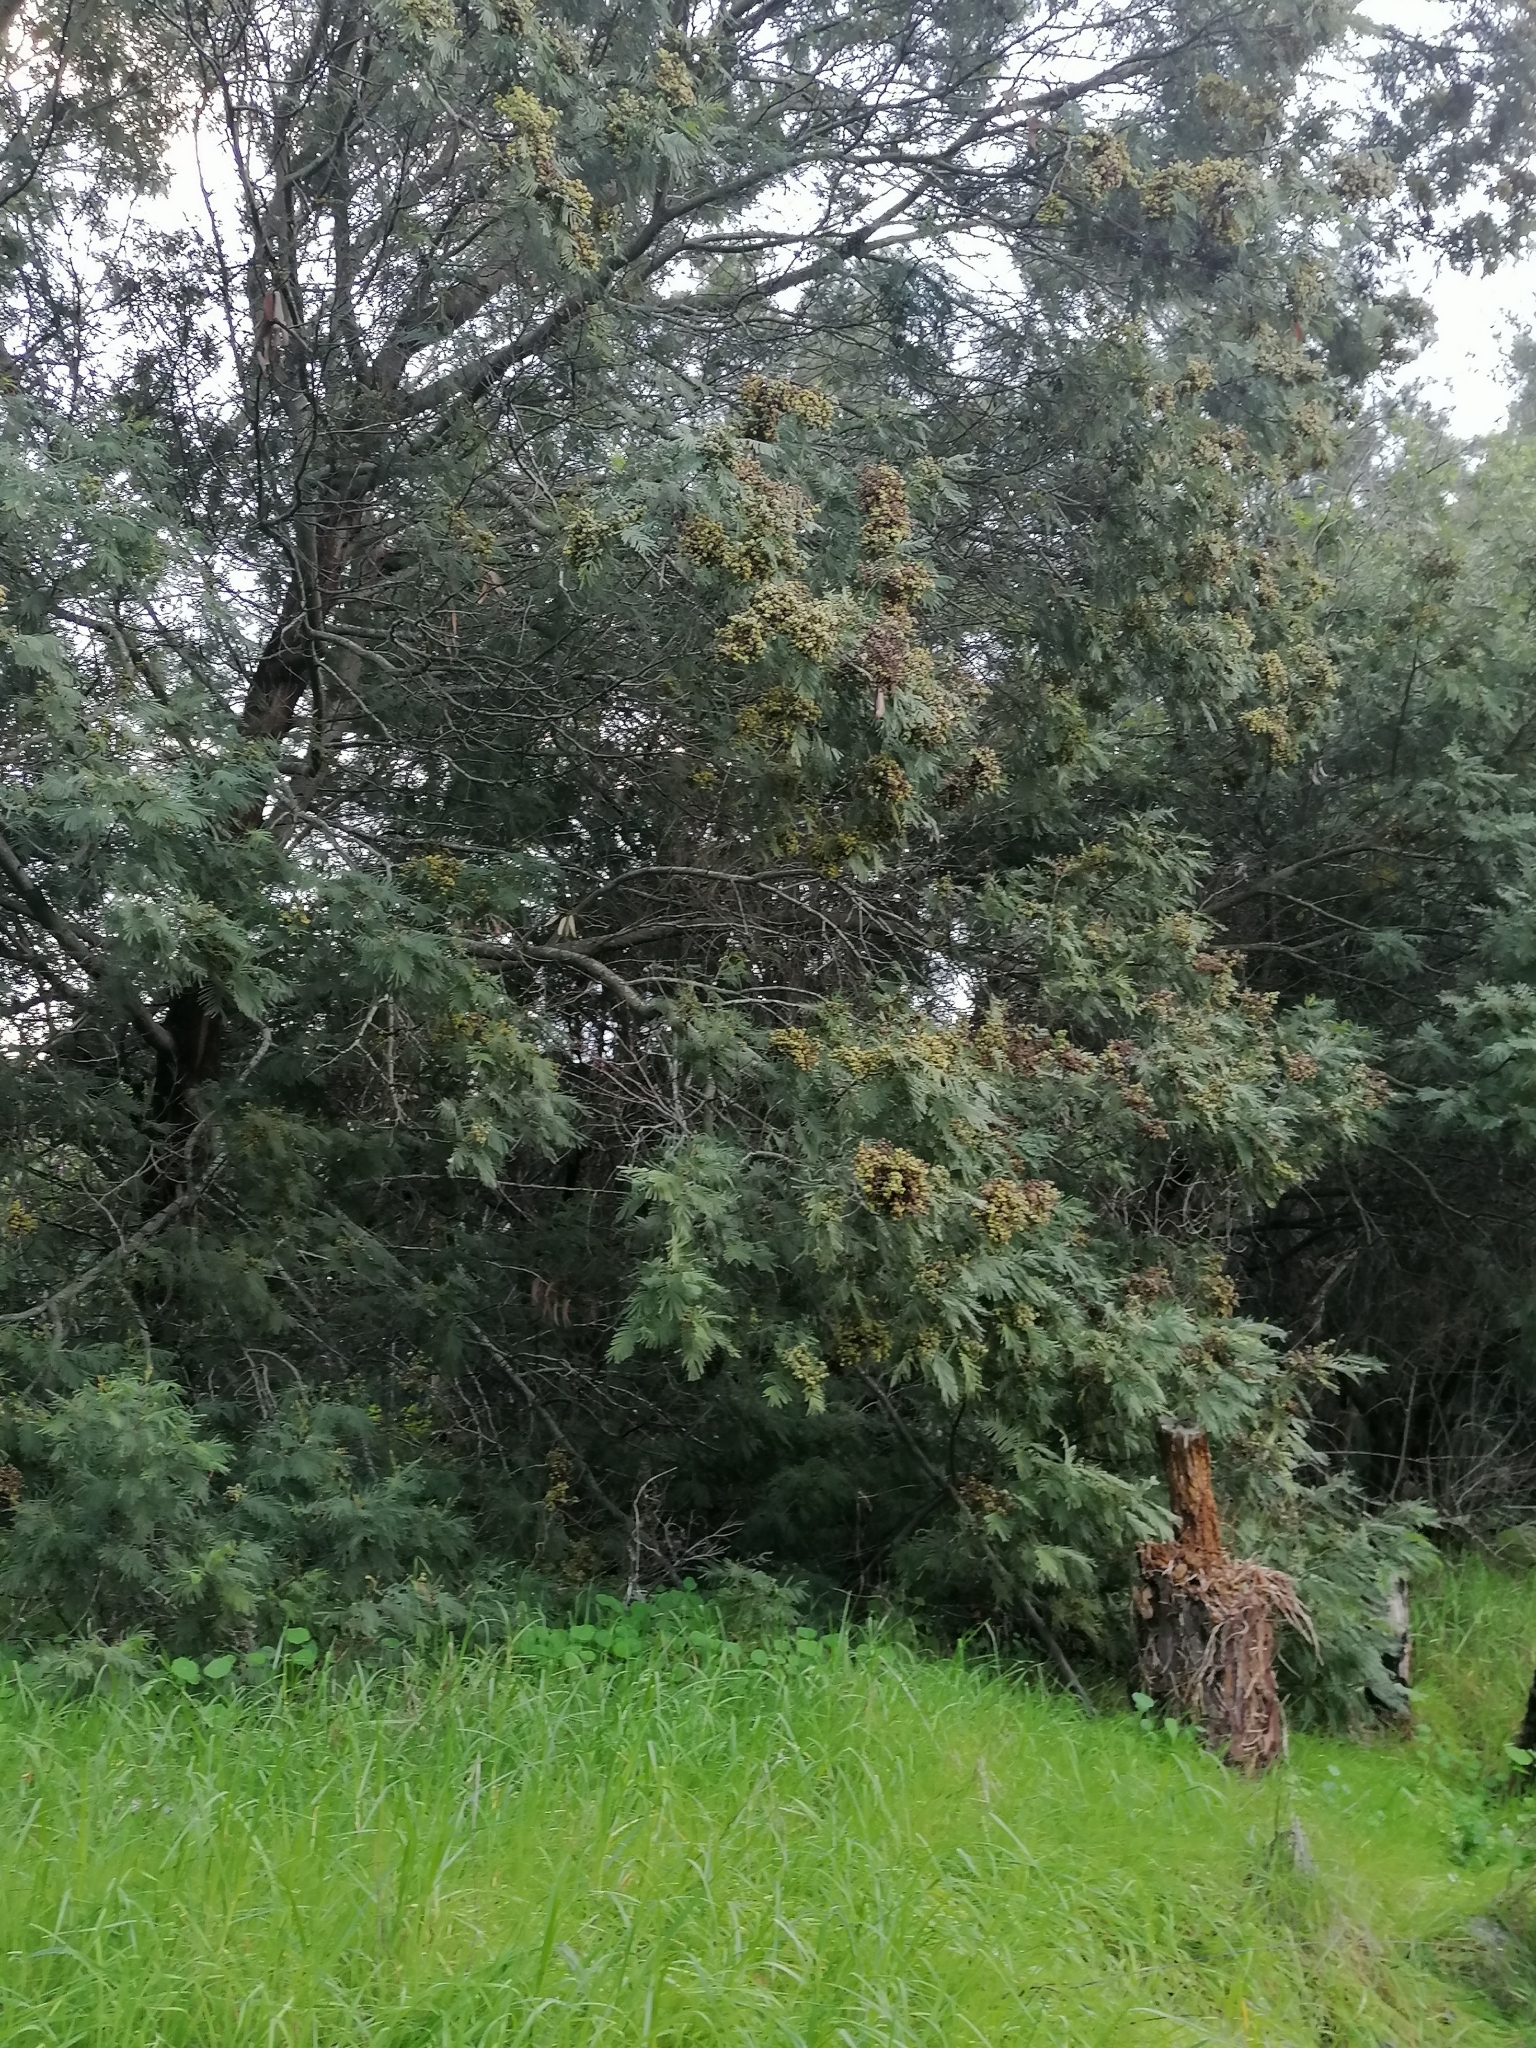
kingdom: Plantae
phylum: Tracheophyta
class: Magnoliopsida
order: Fabales
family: Fabaceae
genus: Acacia
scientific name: Acacia mearnsii
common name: Black wattle
